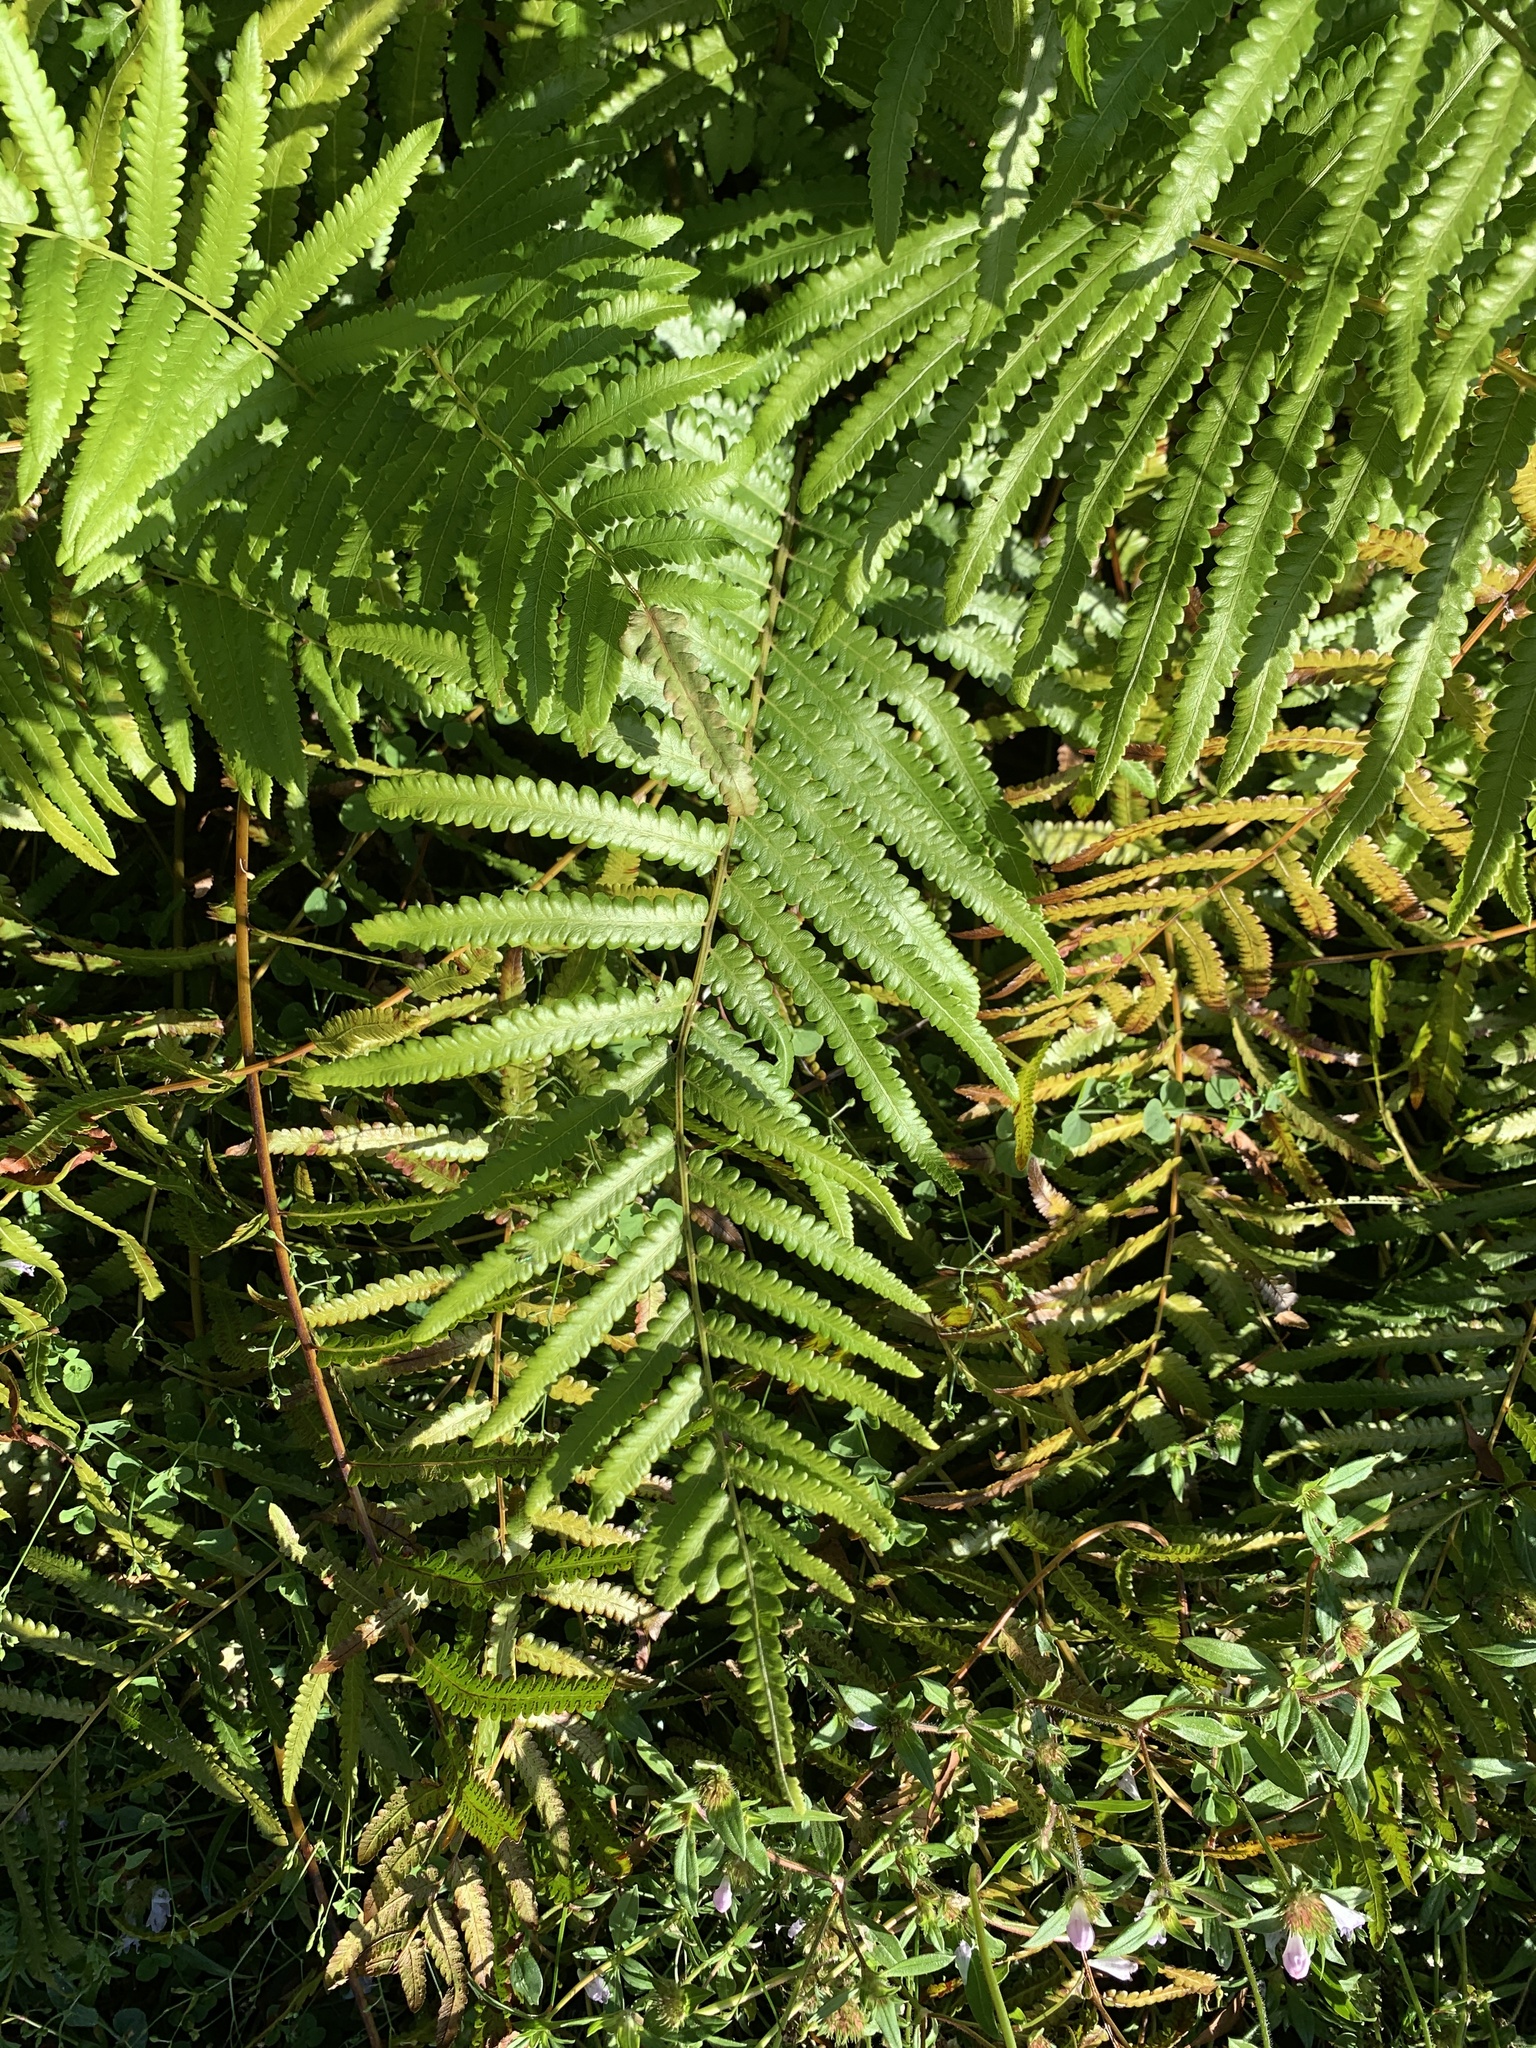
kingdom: Plantae
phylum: Tracheophyta
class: Polypodiopsida
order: Polypodiales
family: Thelypteridaceae
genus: Cyclosorus
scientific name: Cyclosorus interruptus
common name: Neke fern
